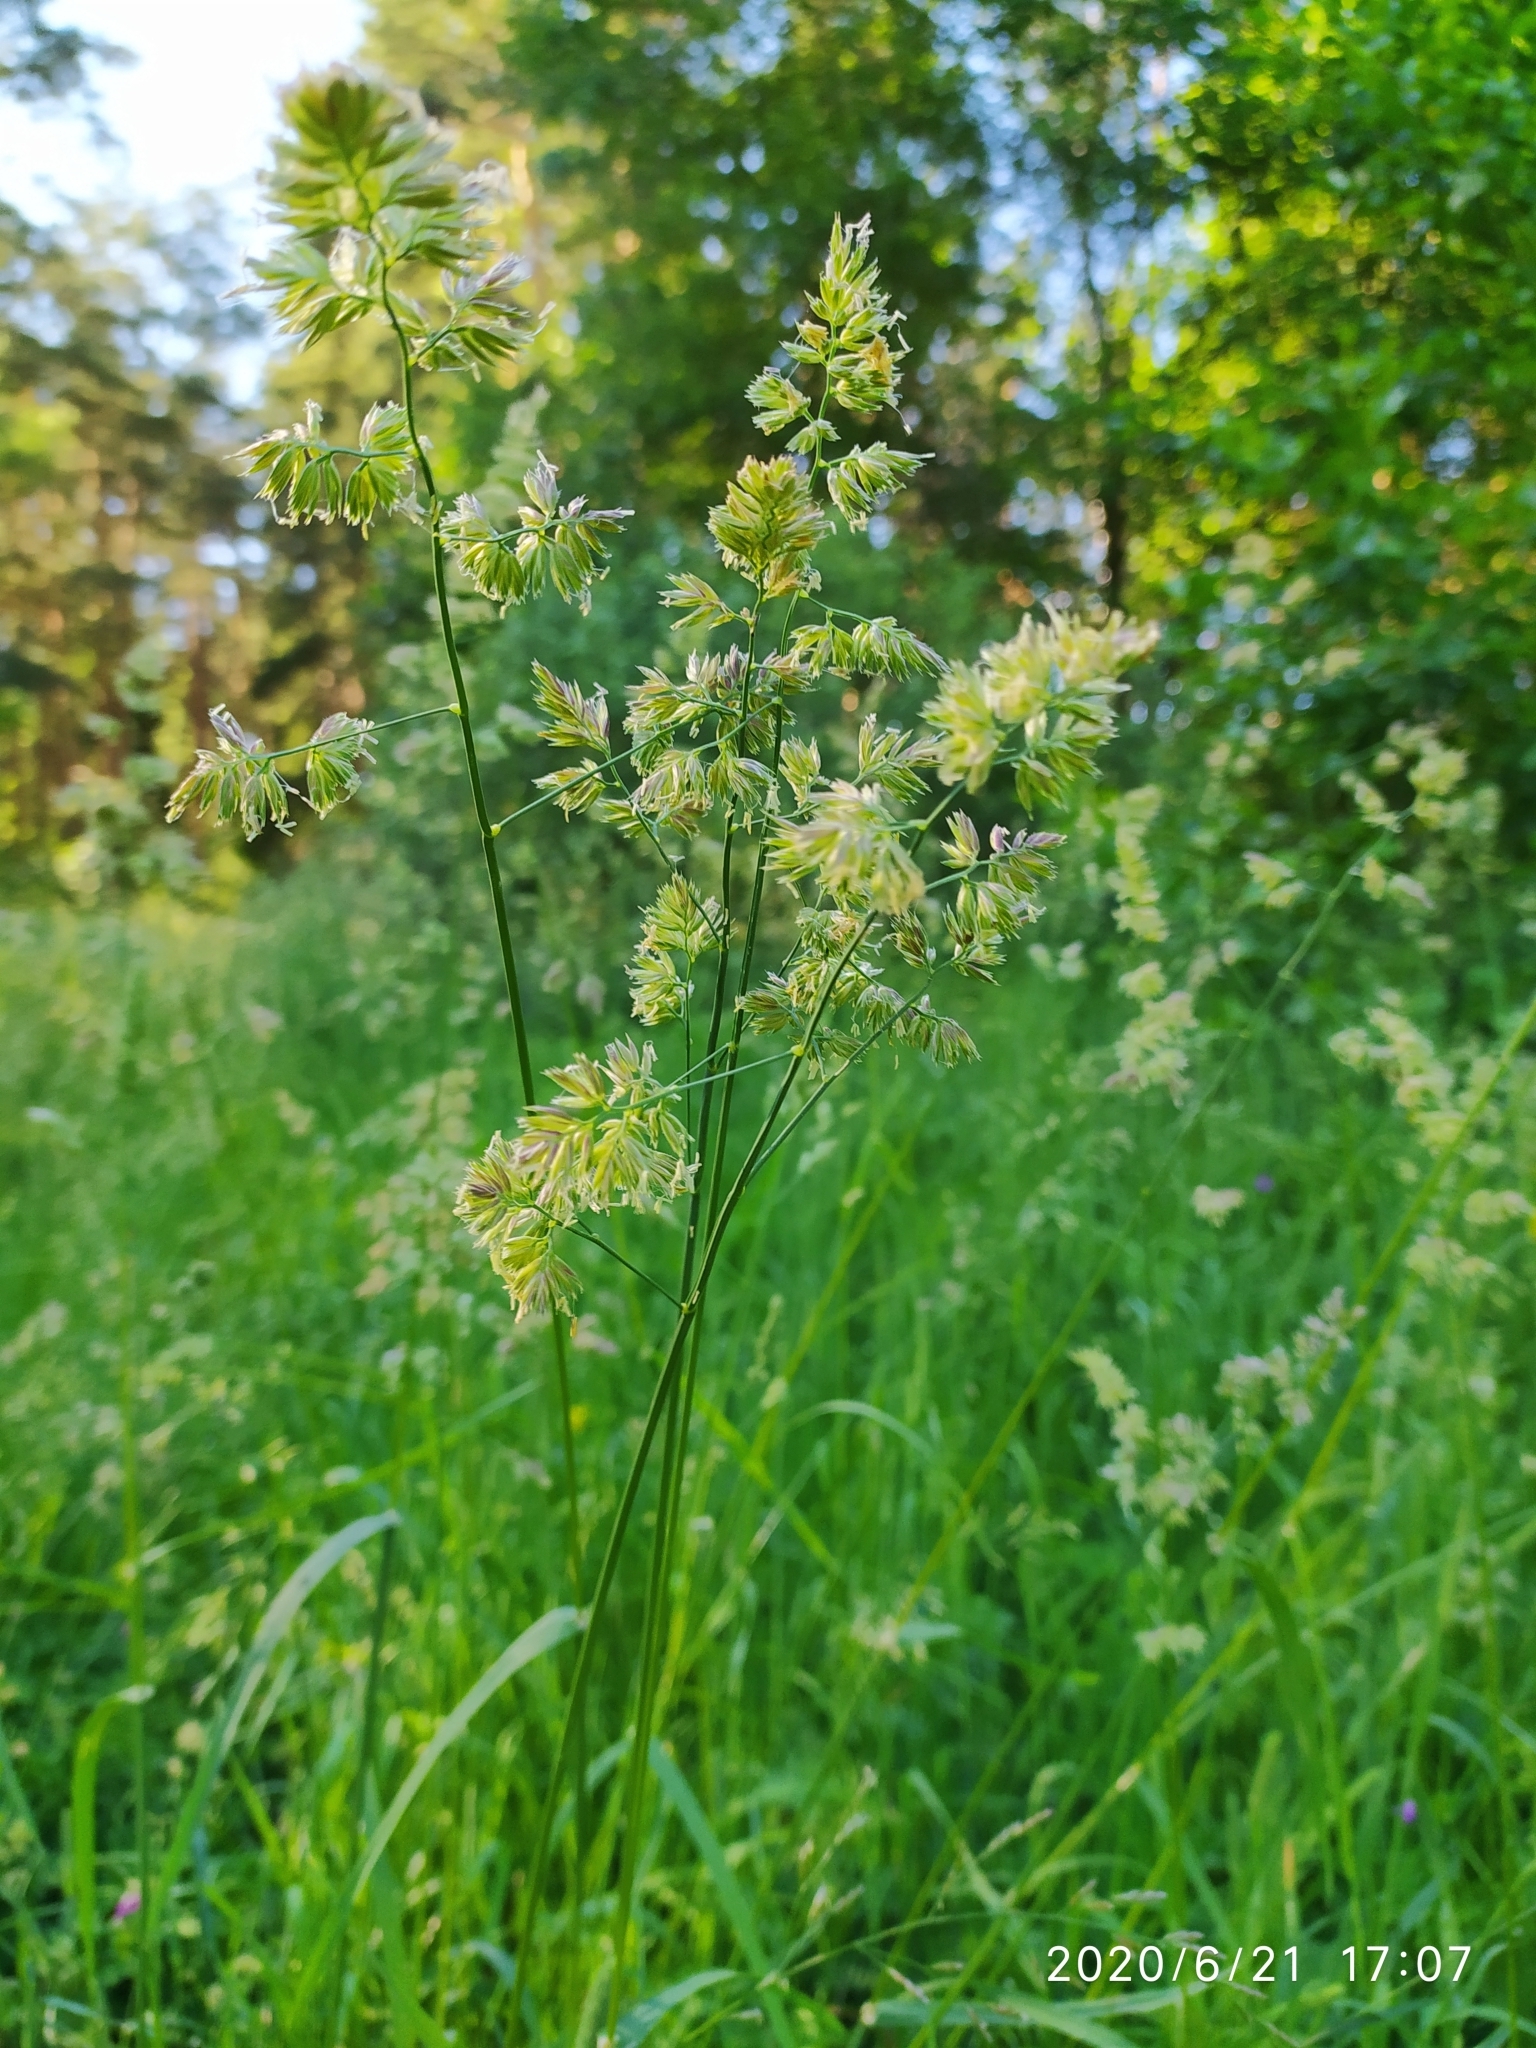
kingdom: Plantae
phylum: Tracheophyta
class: Liliopsida
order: Poales
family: Poaceae
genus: Dactylis
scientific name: Dactylis glomerata
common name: Orchardgrass
